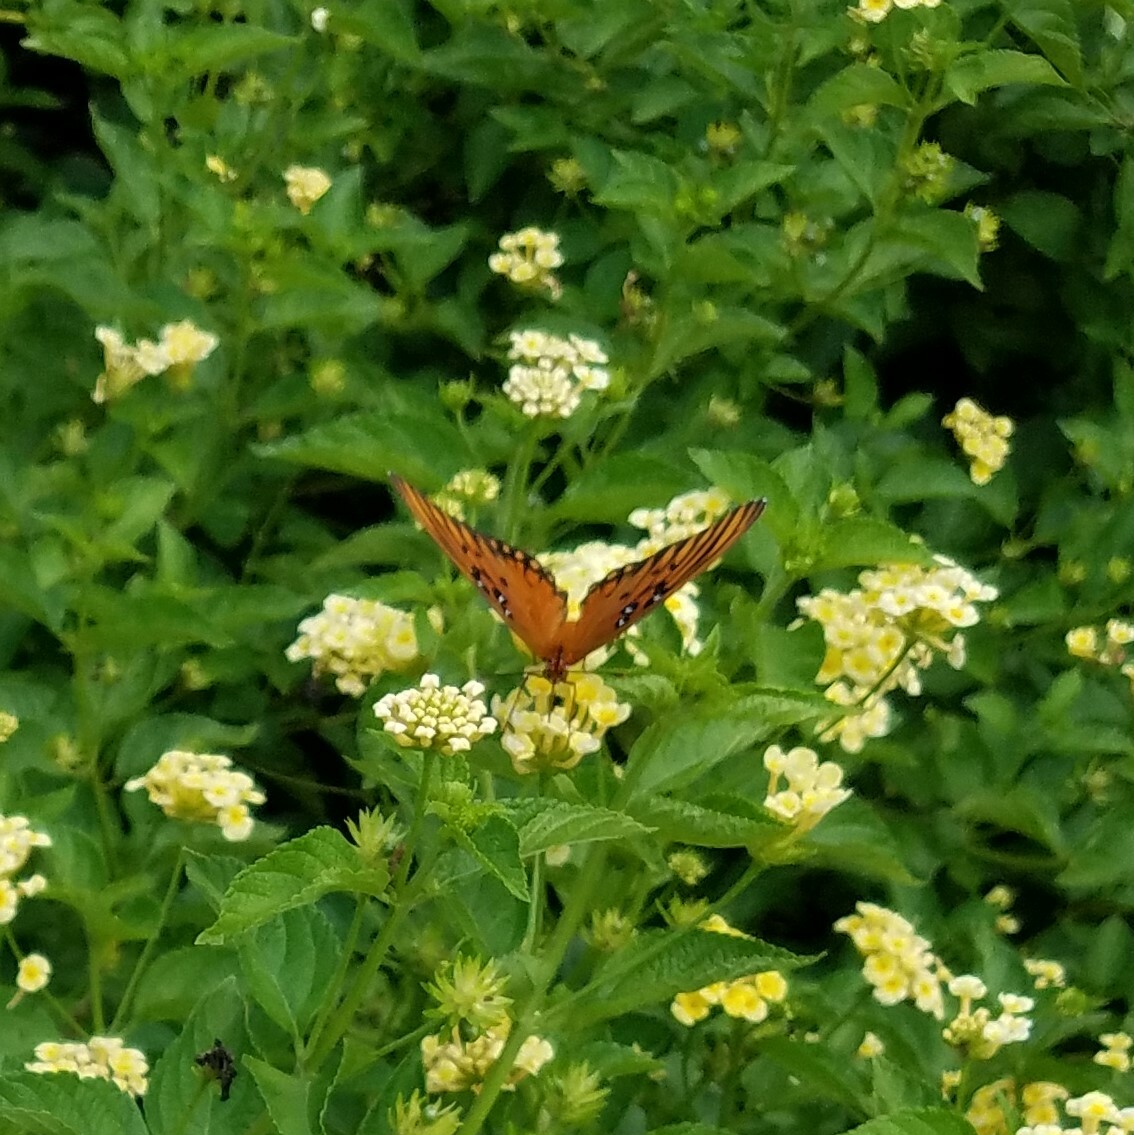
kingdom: Animalia
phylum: Arthropoda
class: Insecta
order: Lepidoptera
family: Nymphalidae
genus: Dione
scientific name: Dione vanillae
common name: Gulf fritillary
